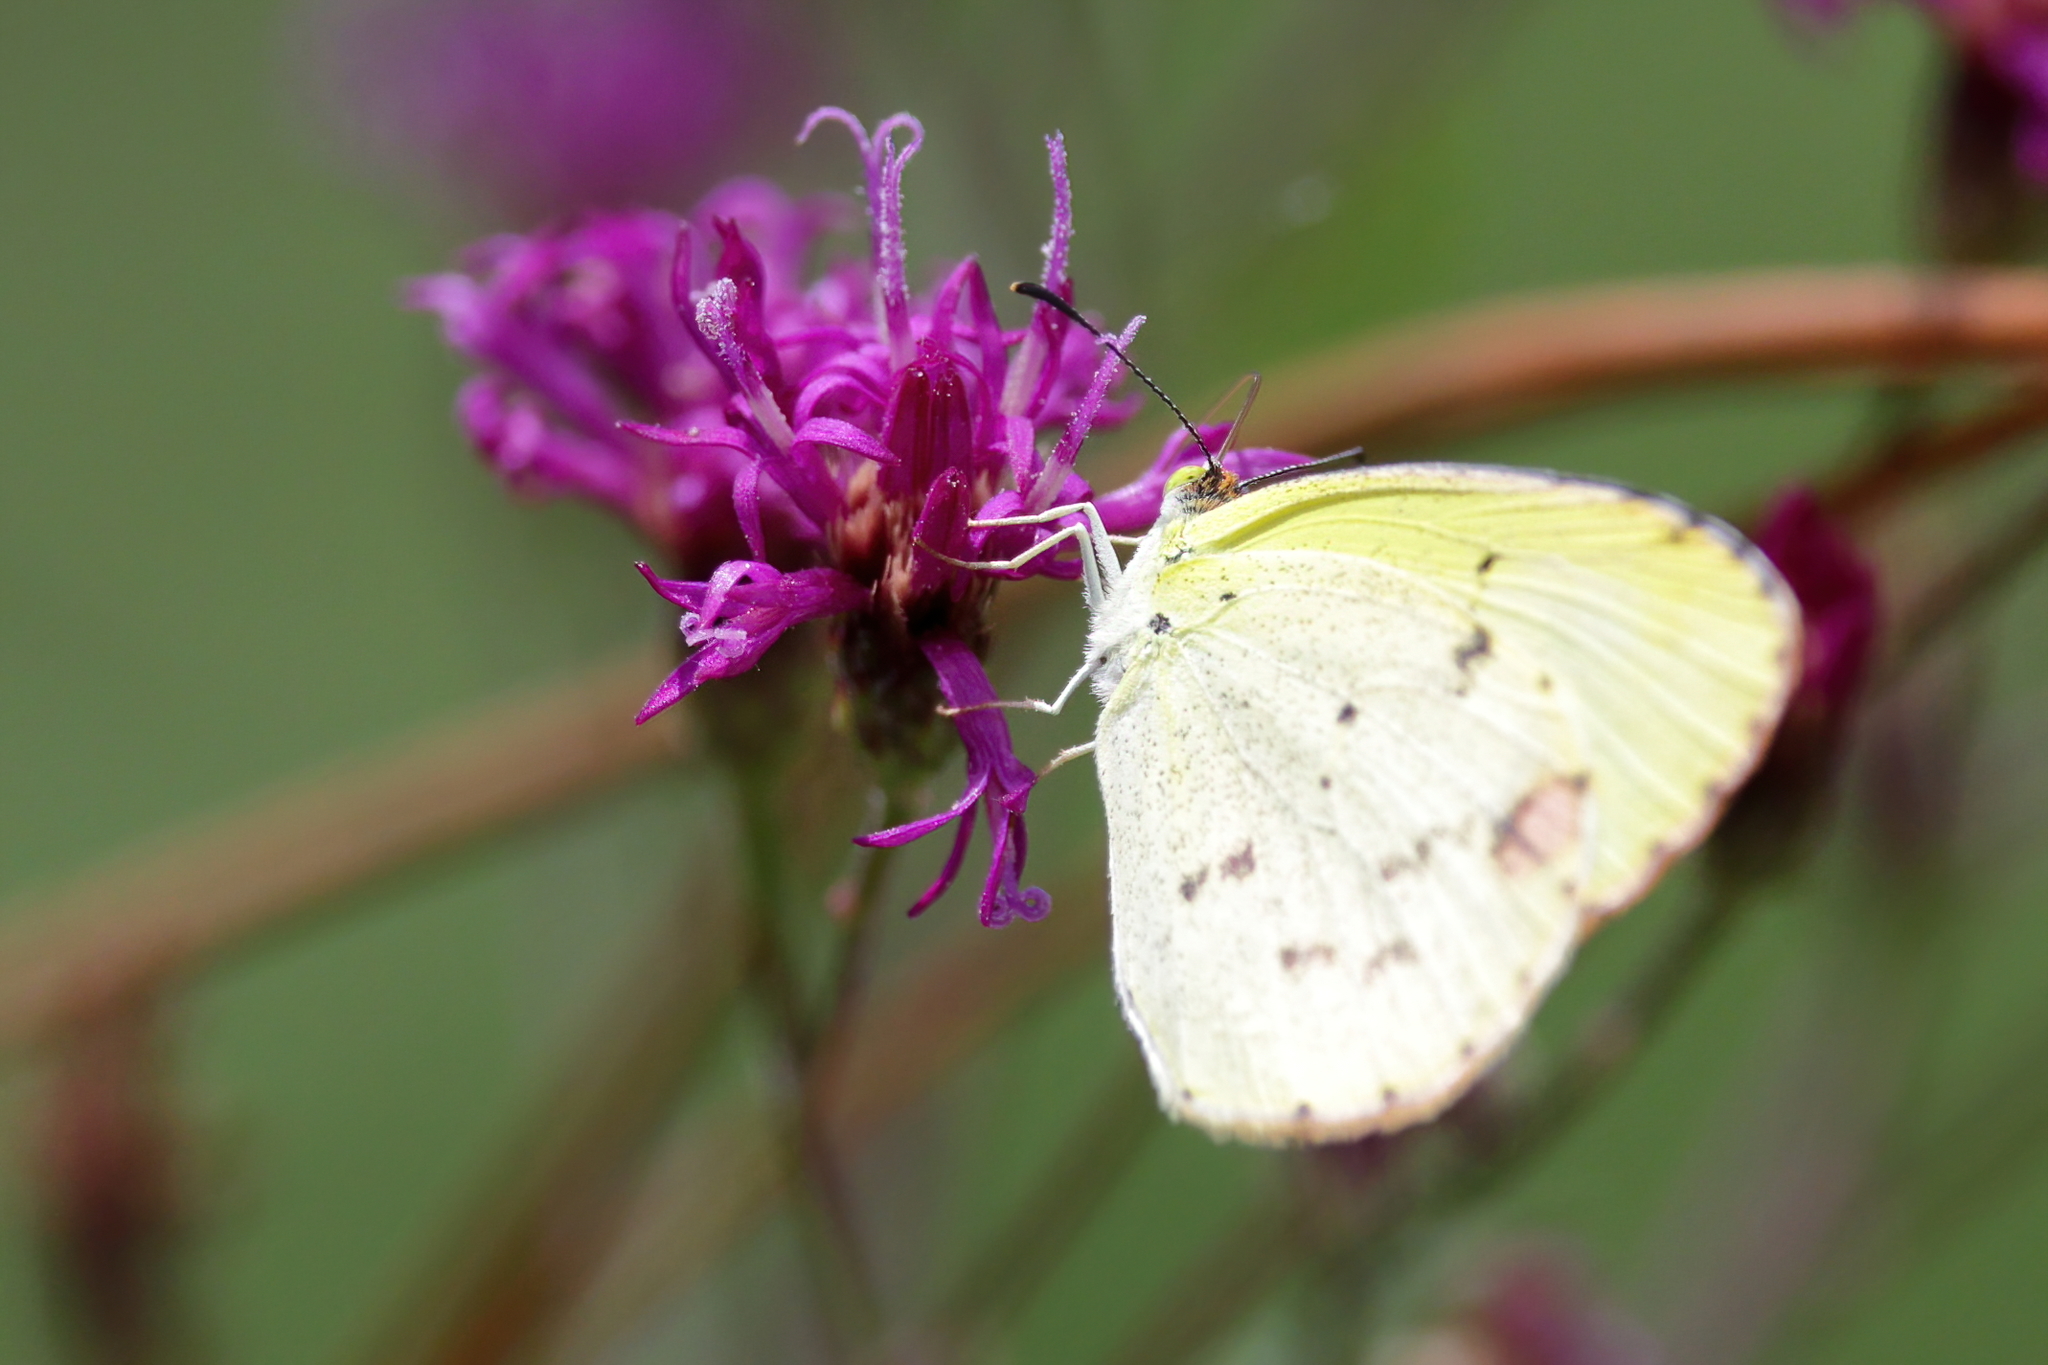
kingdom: Animalia
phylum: Arthropoda
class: Insecta
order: Lepidoptera
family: Pieridae
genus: Pyrisitia
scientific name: Pyrisitia lisa
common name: Little yellow
